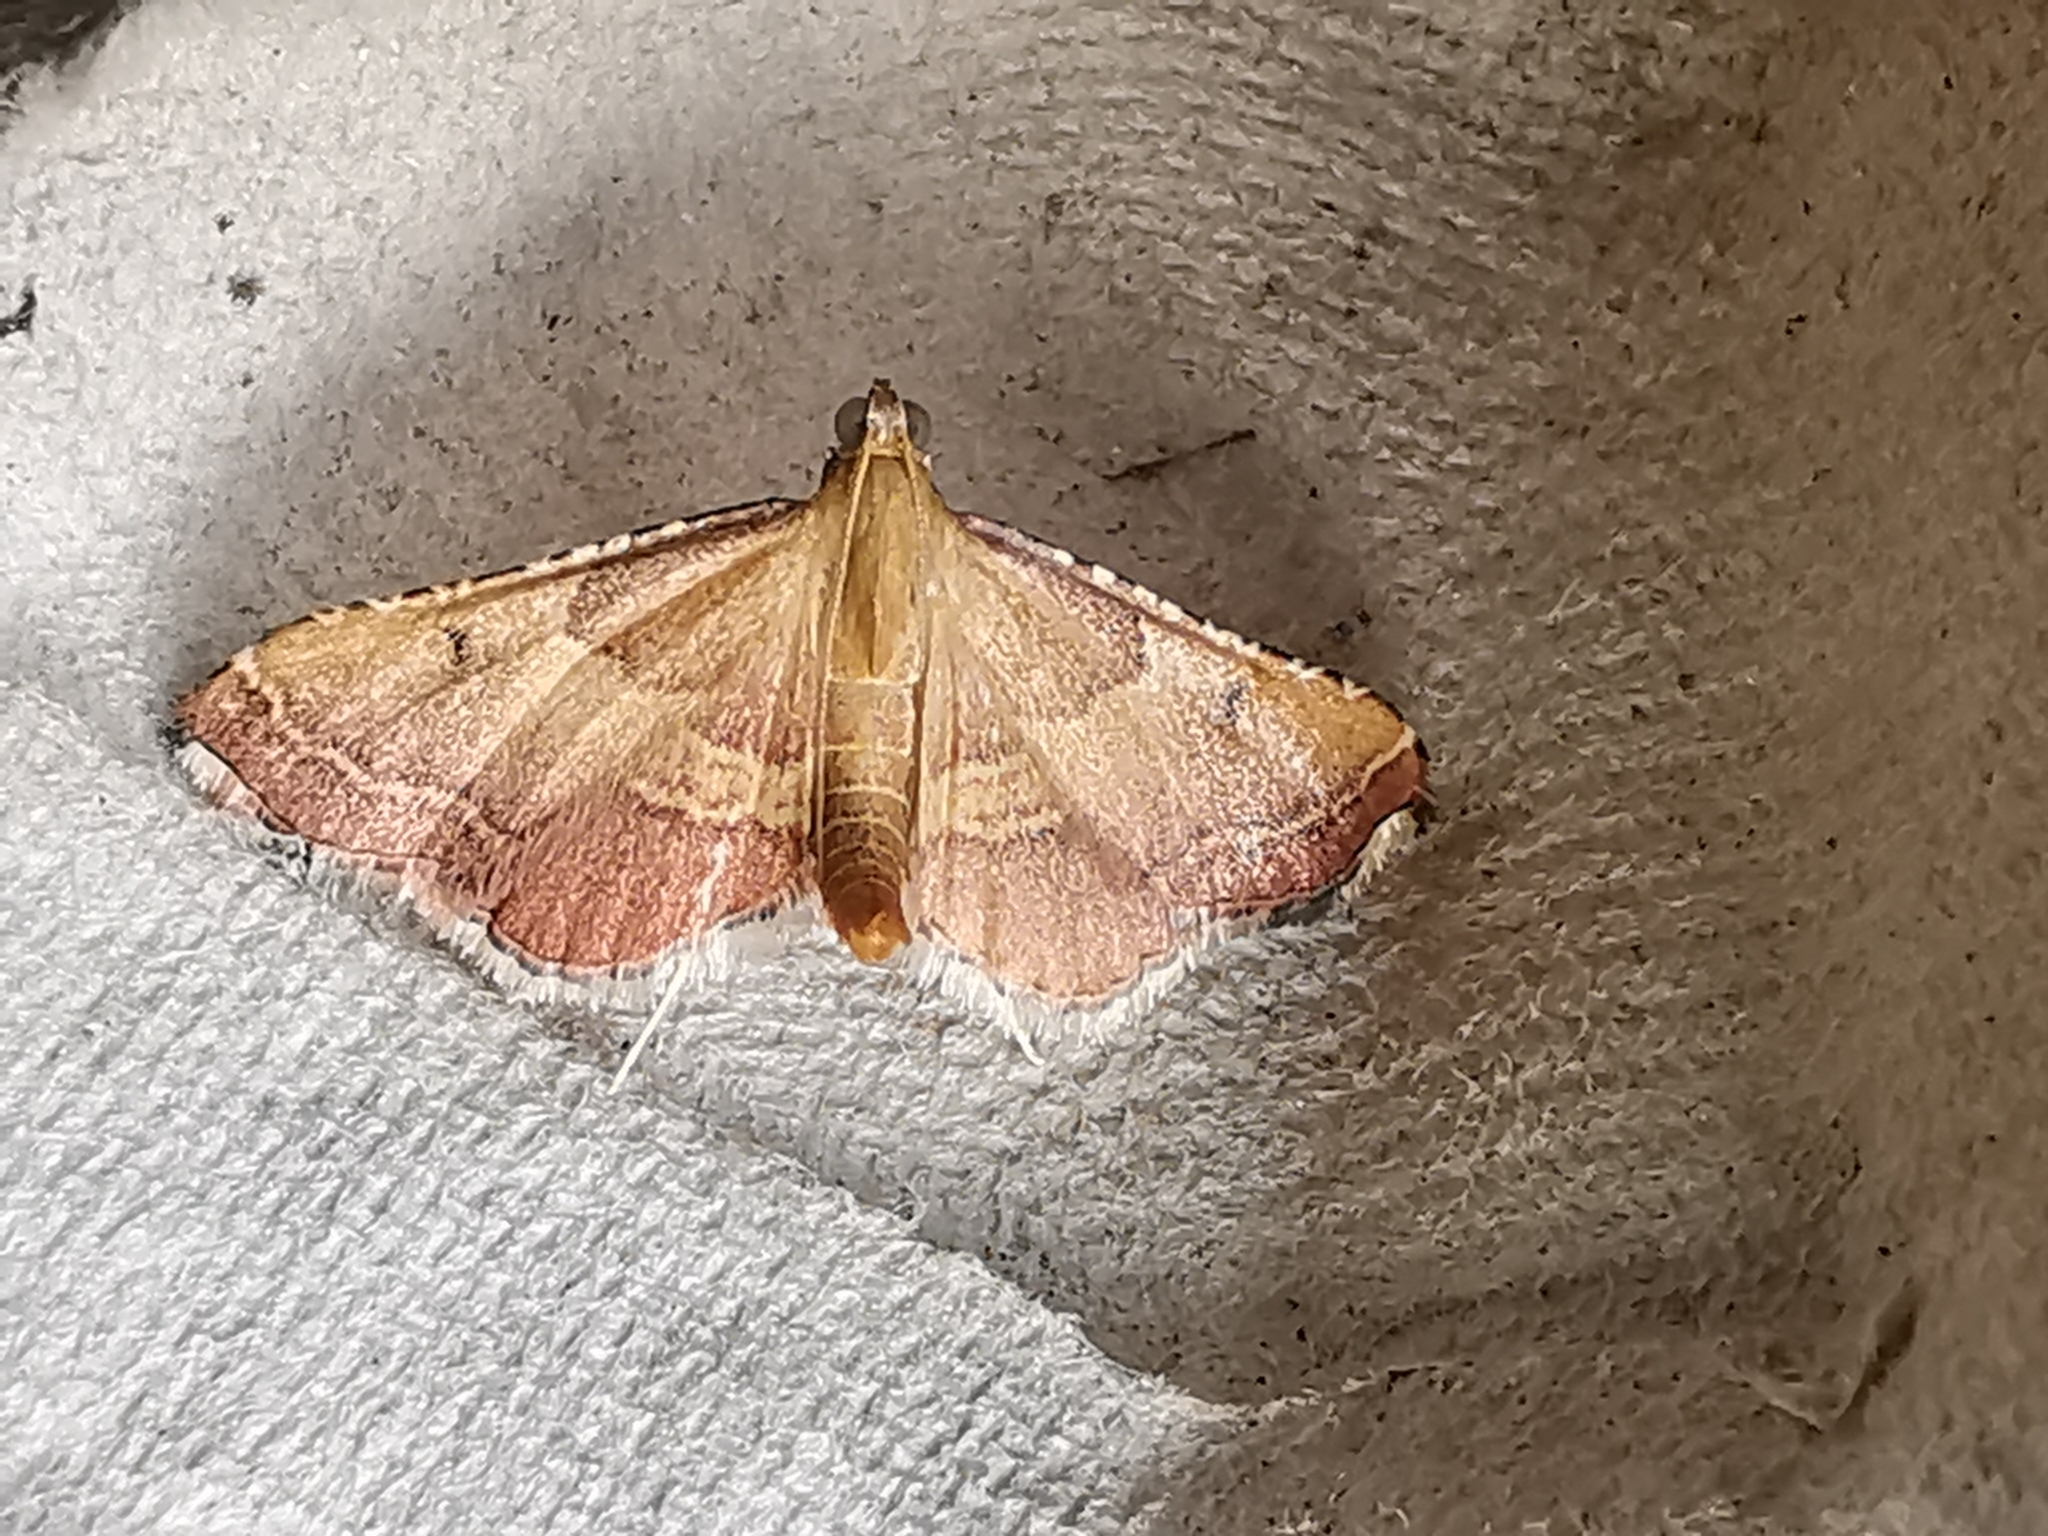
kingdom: Animalia
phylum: Arthropoda
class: Insecta
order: Lepidoptera
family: Pyralidae
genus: Endotricha
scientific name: Endotricha flammealis
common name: Rosy tabby
